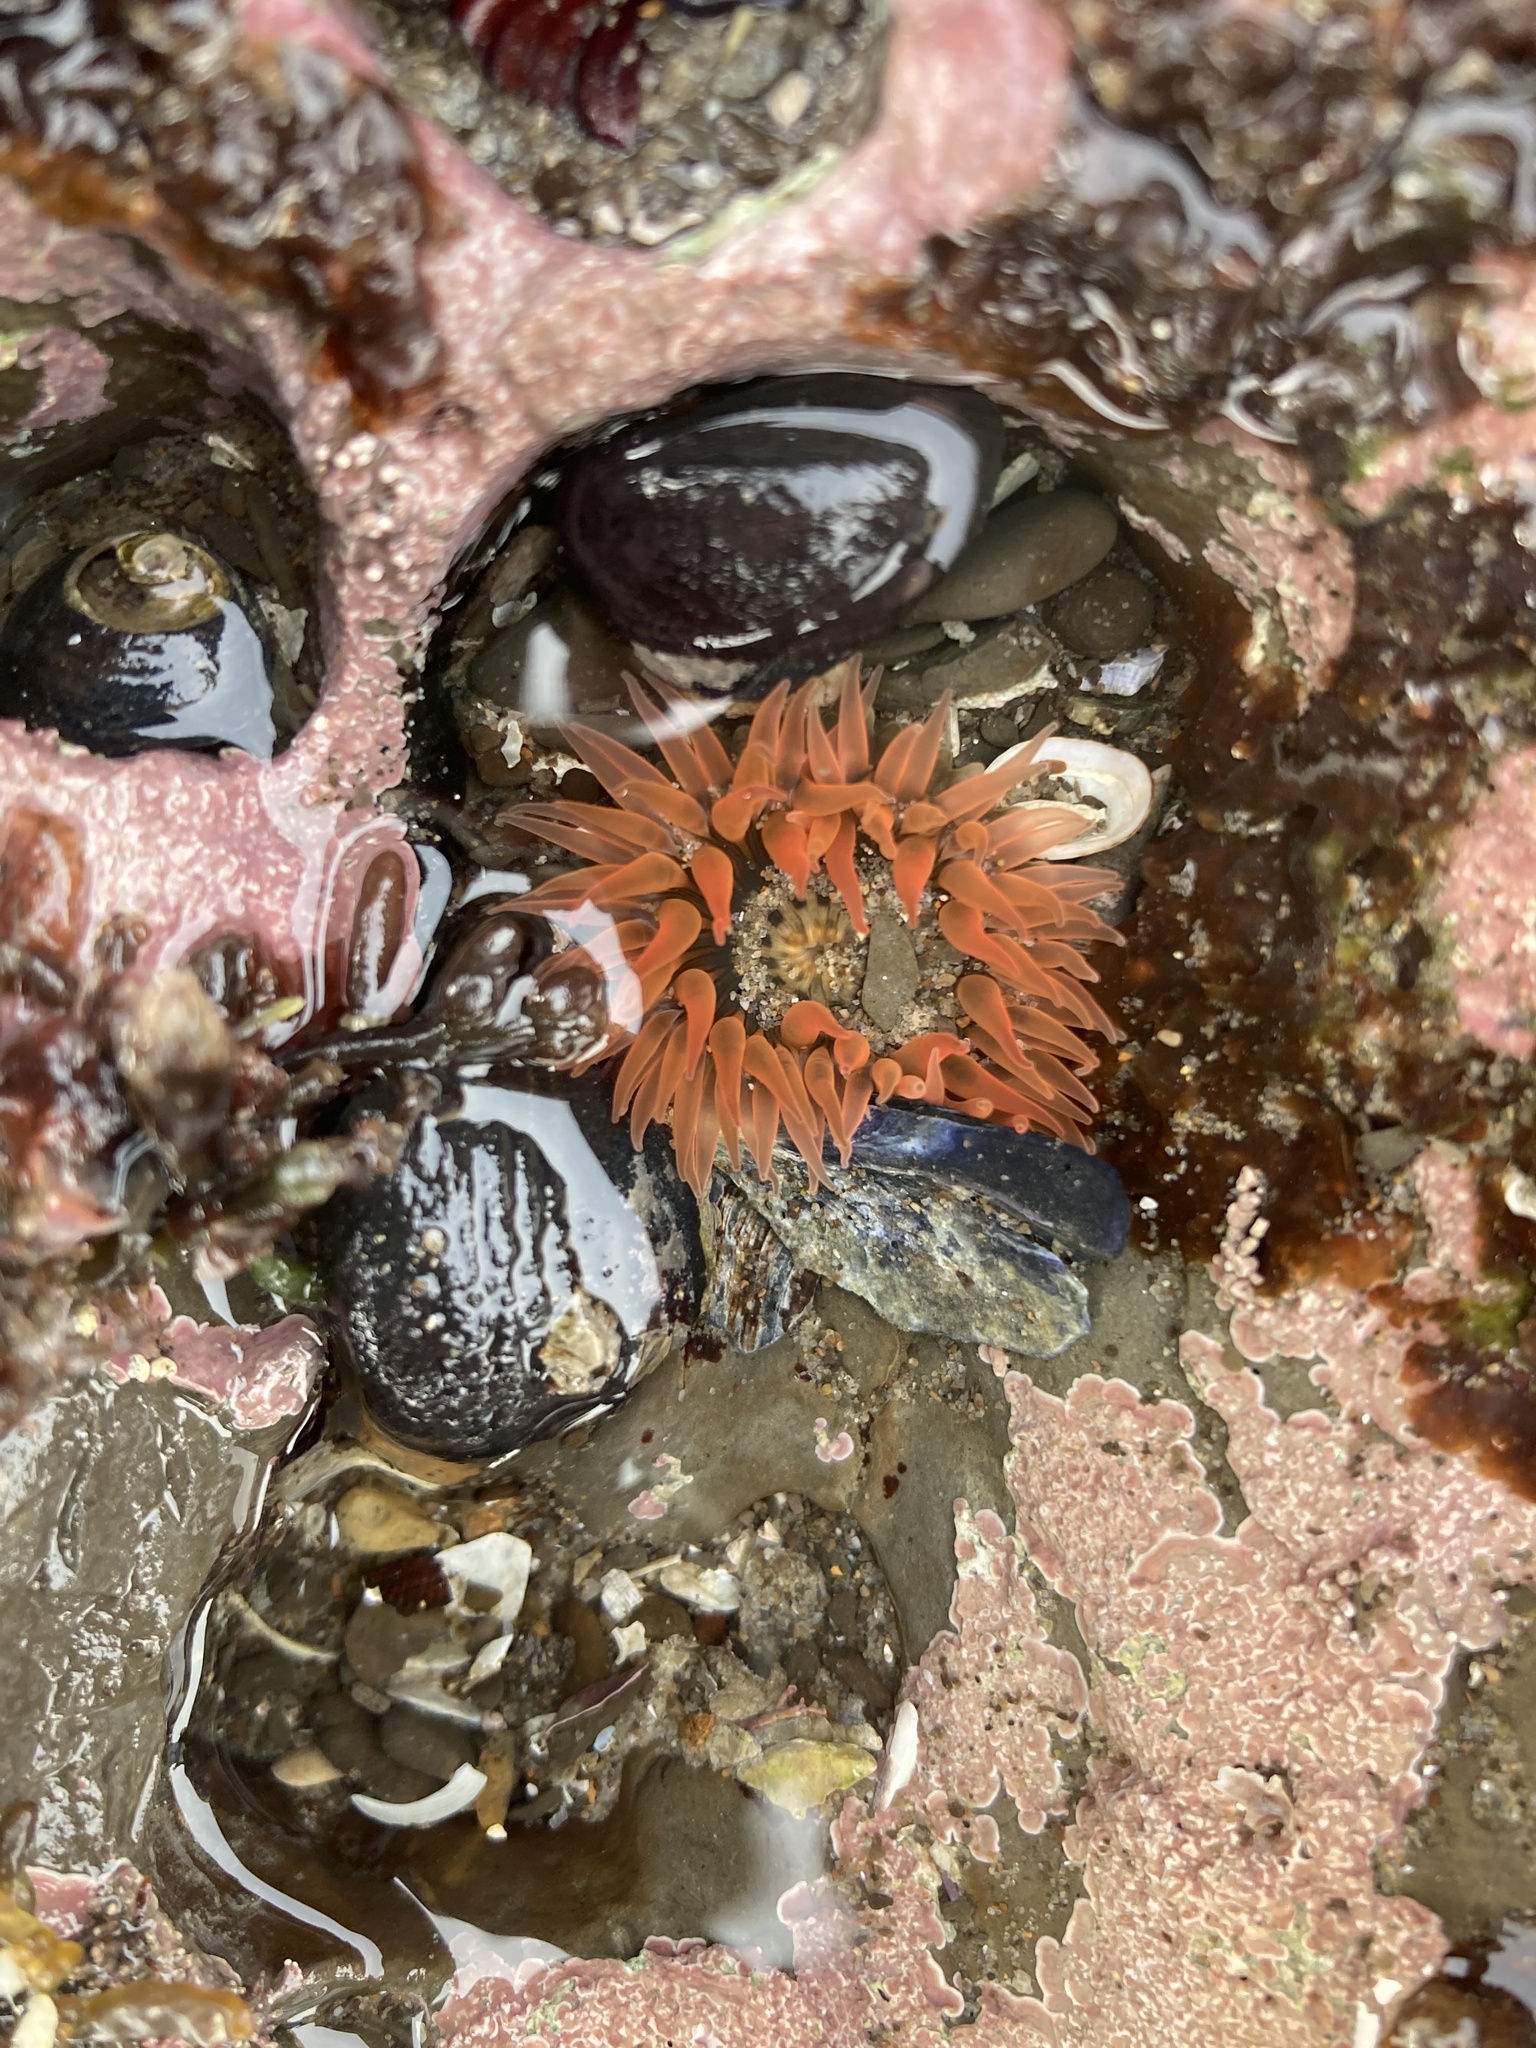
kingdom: Animalia
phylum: Cnidaria
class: Anthozoa
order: Actiniaria
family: Actiniidae
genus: Anthopleura
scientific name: Anthopleura artemisia
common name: Buried sea anemone
